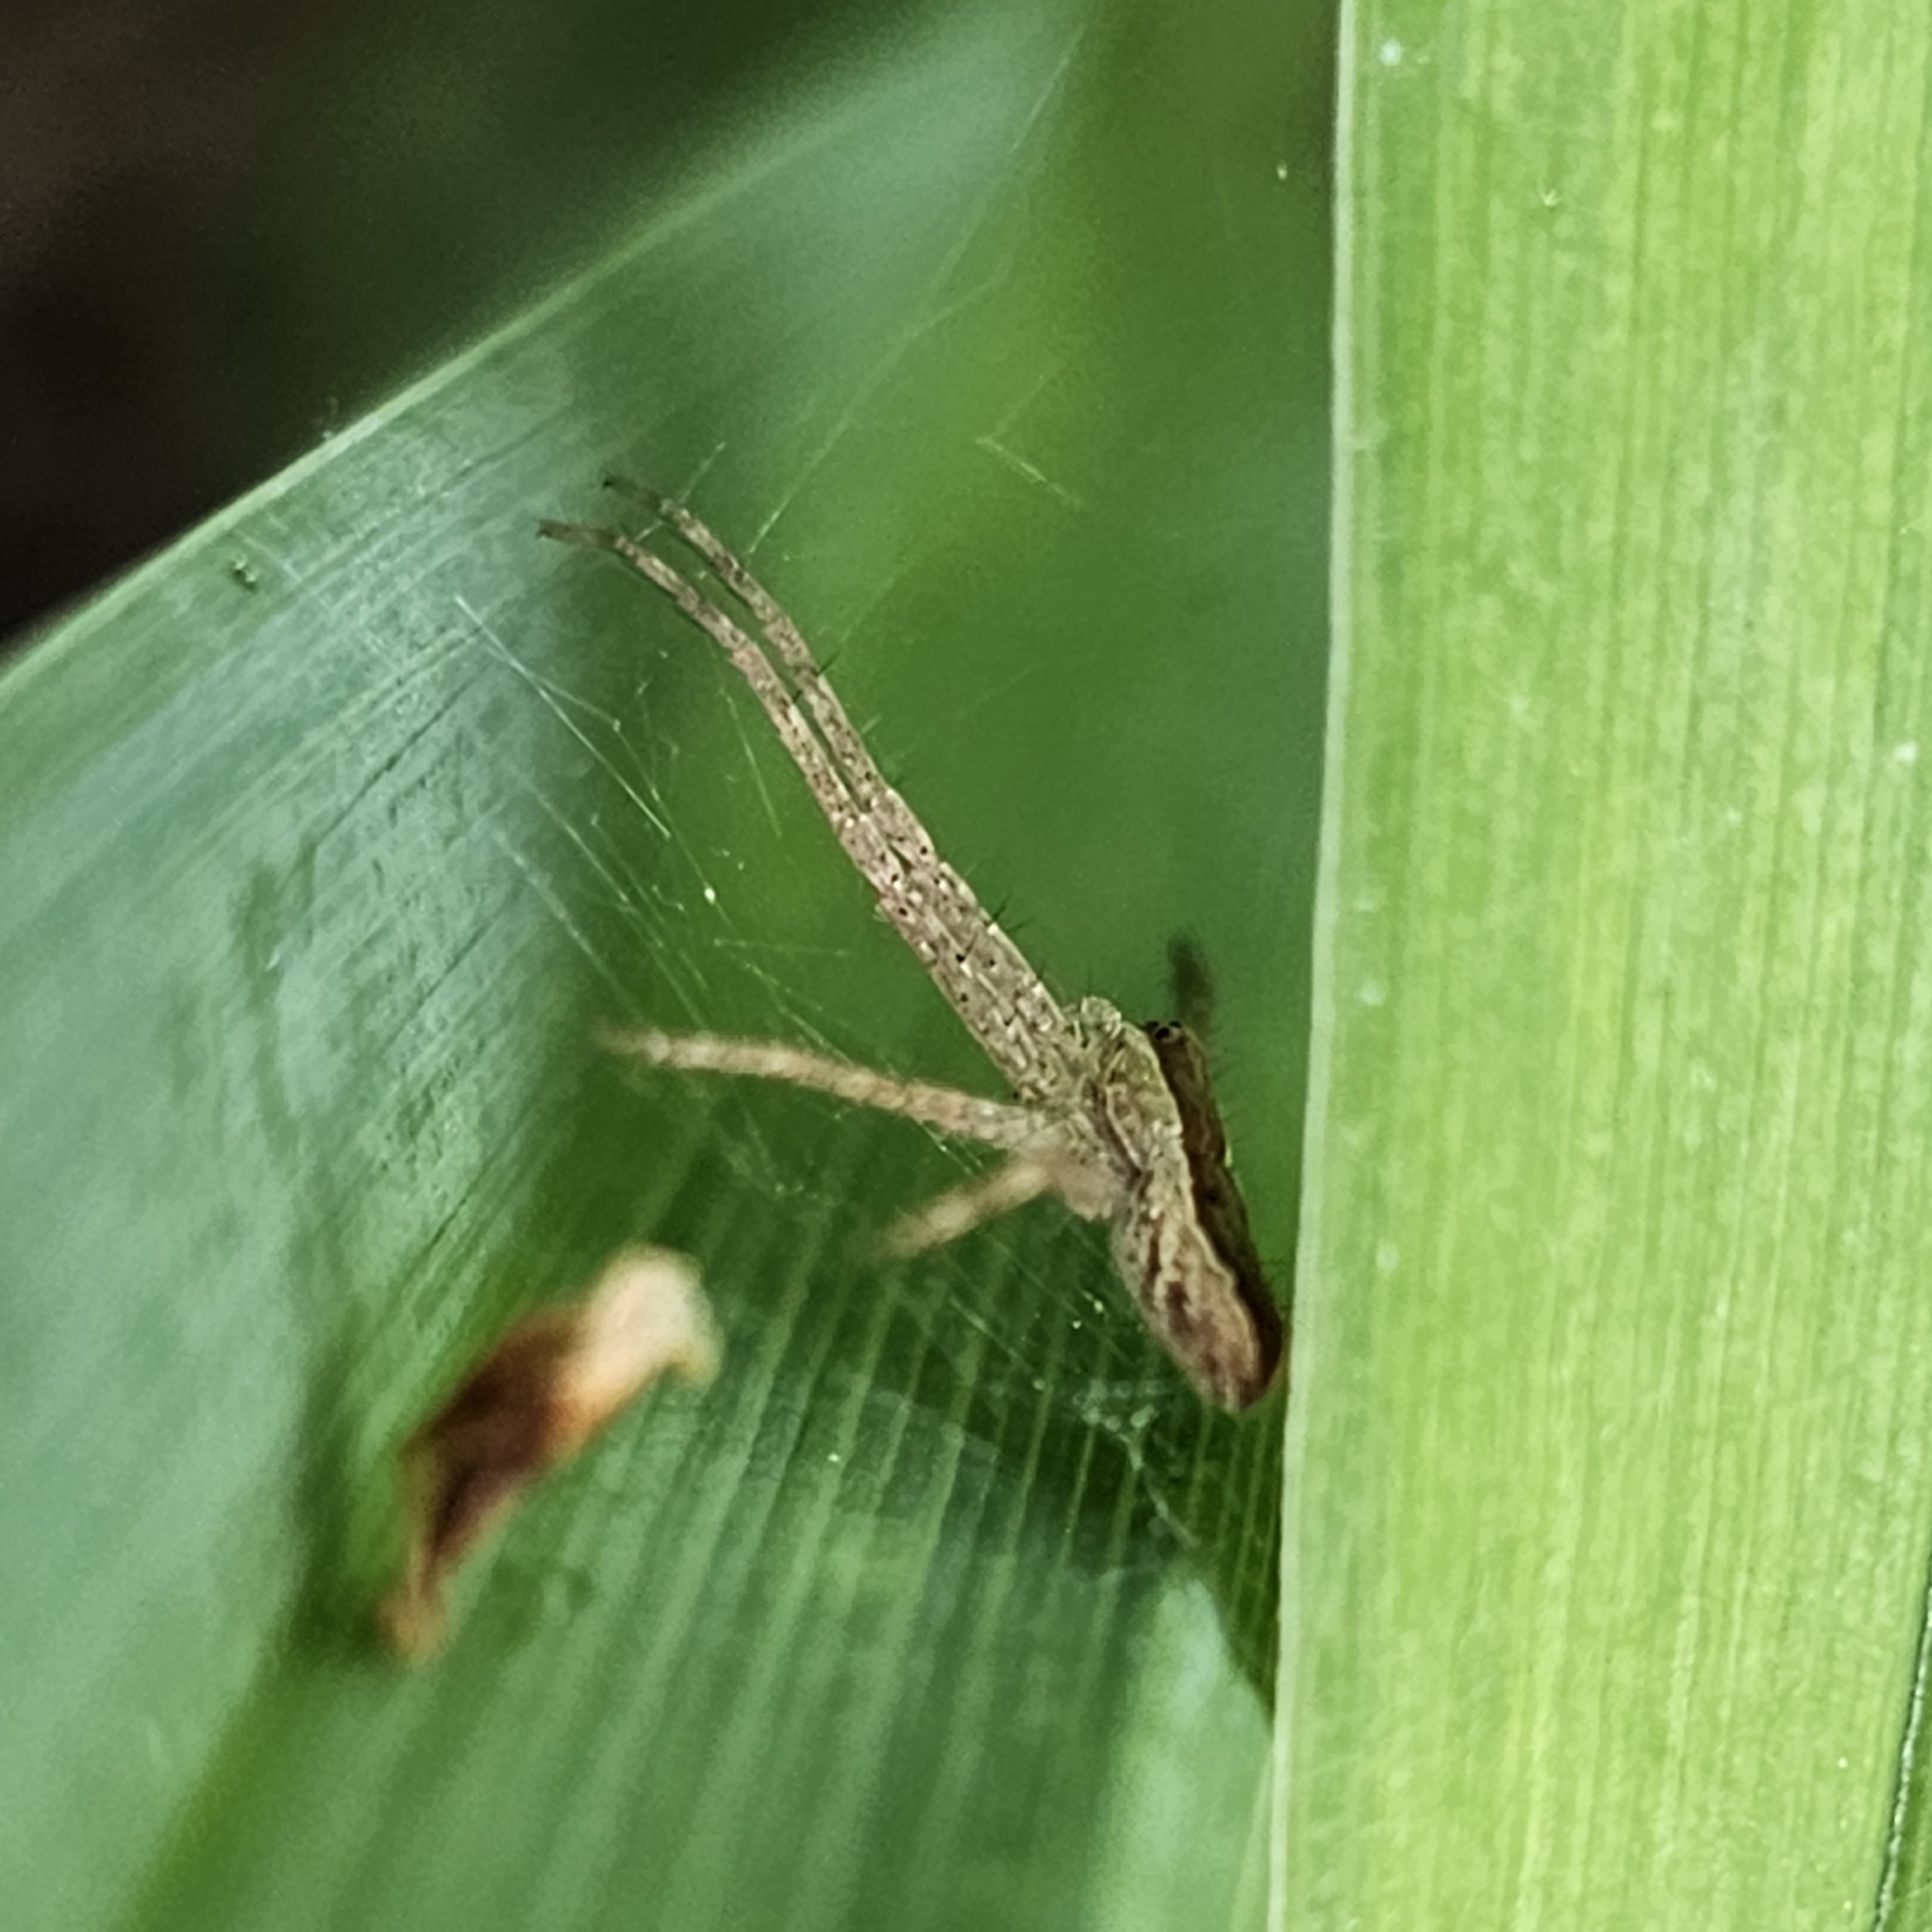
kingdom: Animalia
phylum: Arthropoda
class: Arachnida
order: Araneae
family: Pisauridae
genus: Pisaurina
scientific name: Pisaurina mira
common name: American nursery web spider
